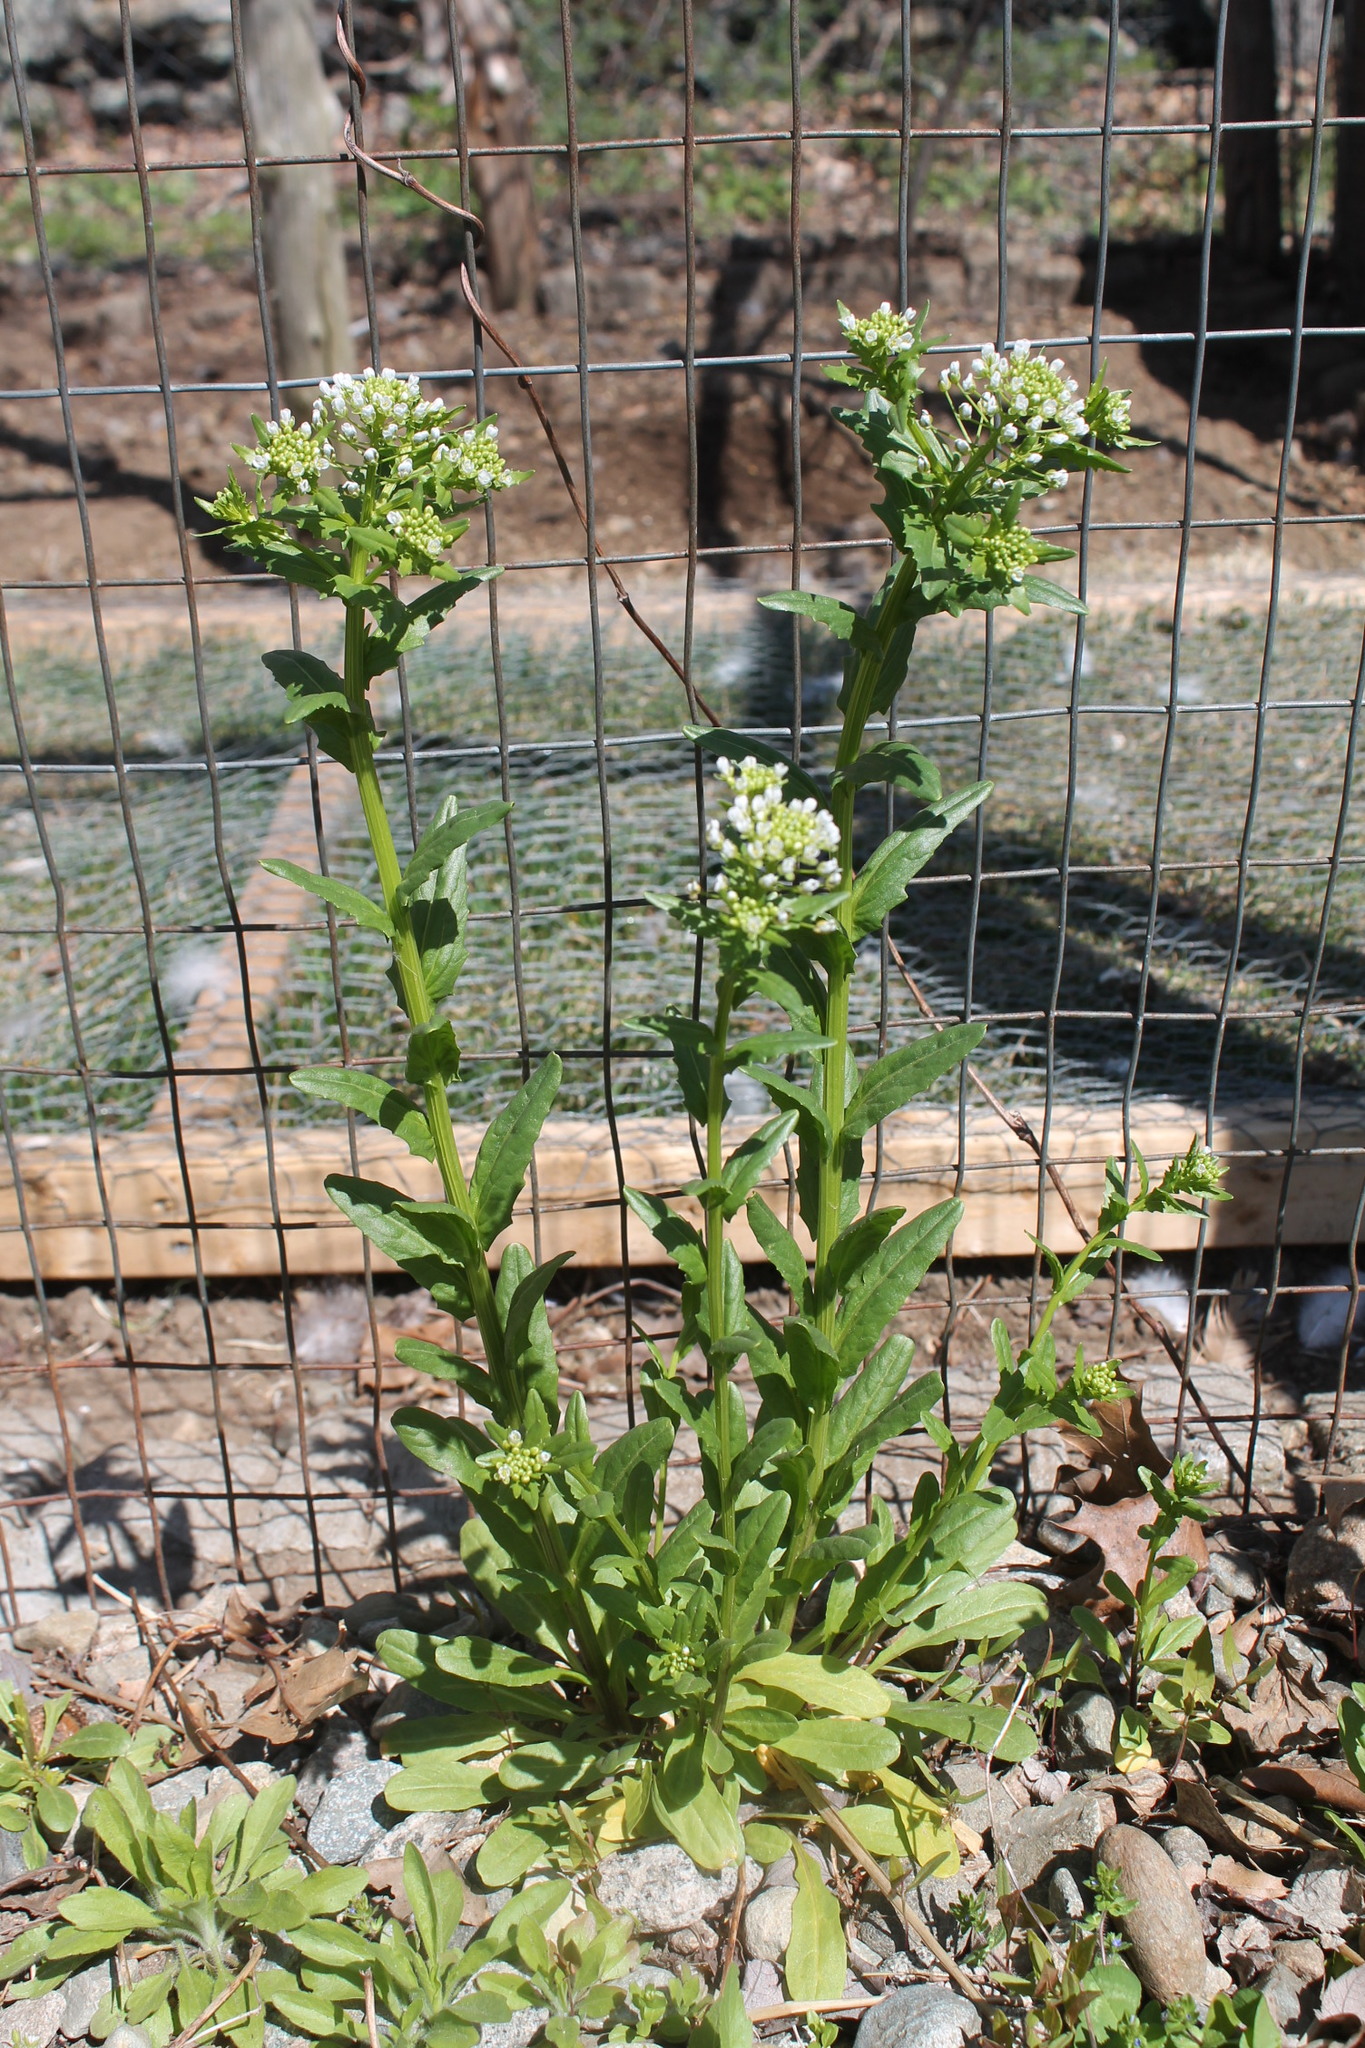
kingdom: Plantae
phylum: Tracheophyta
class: Magnoliopsida
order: Brassicales
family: Brassicaceae
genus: Thlaspi
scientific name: Thlaspi arvense
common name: Field pennycress
